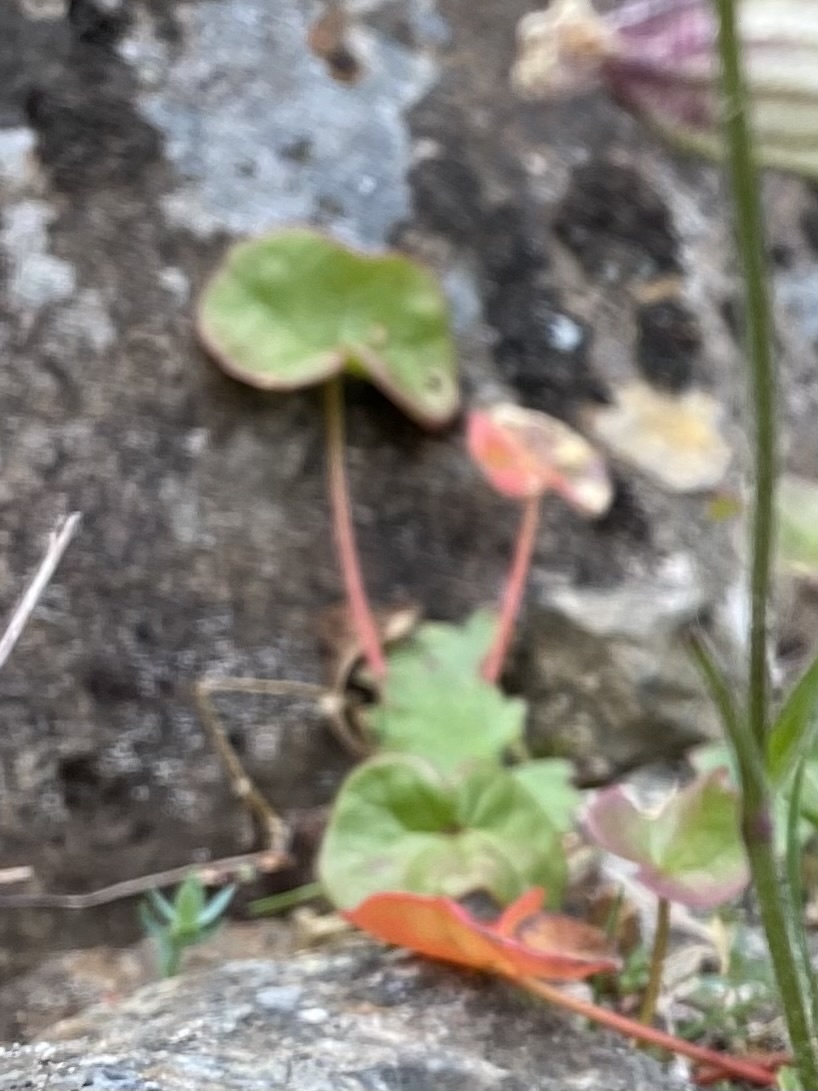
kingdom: Plantae
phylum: Tracheophyta
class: Magnoliopsida
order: Caryophyllales
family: Polygonaceae
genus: Oxyria
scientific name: Oxyria digyna
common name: Alpine mountain-sorrel
